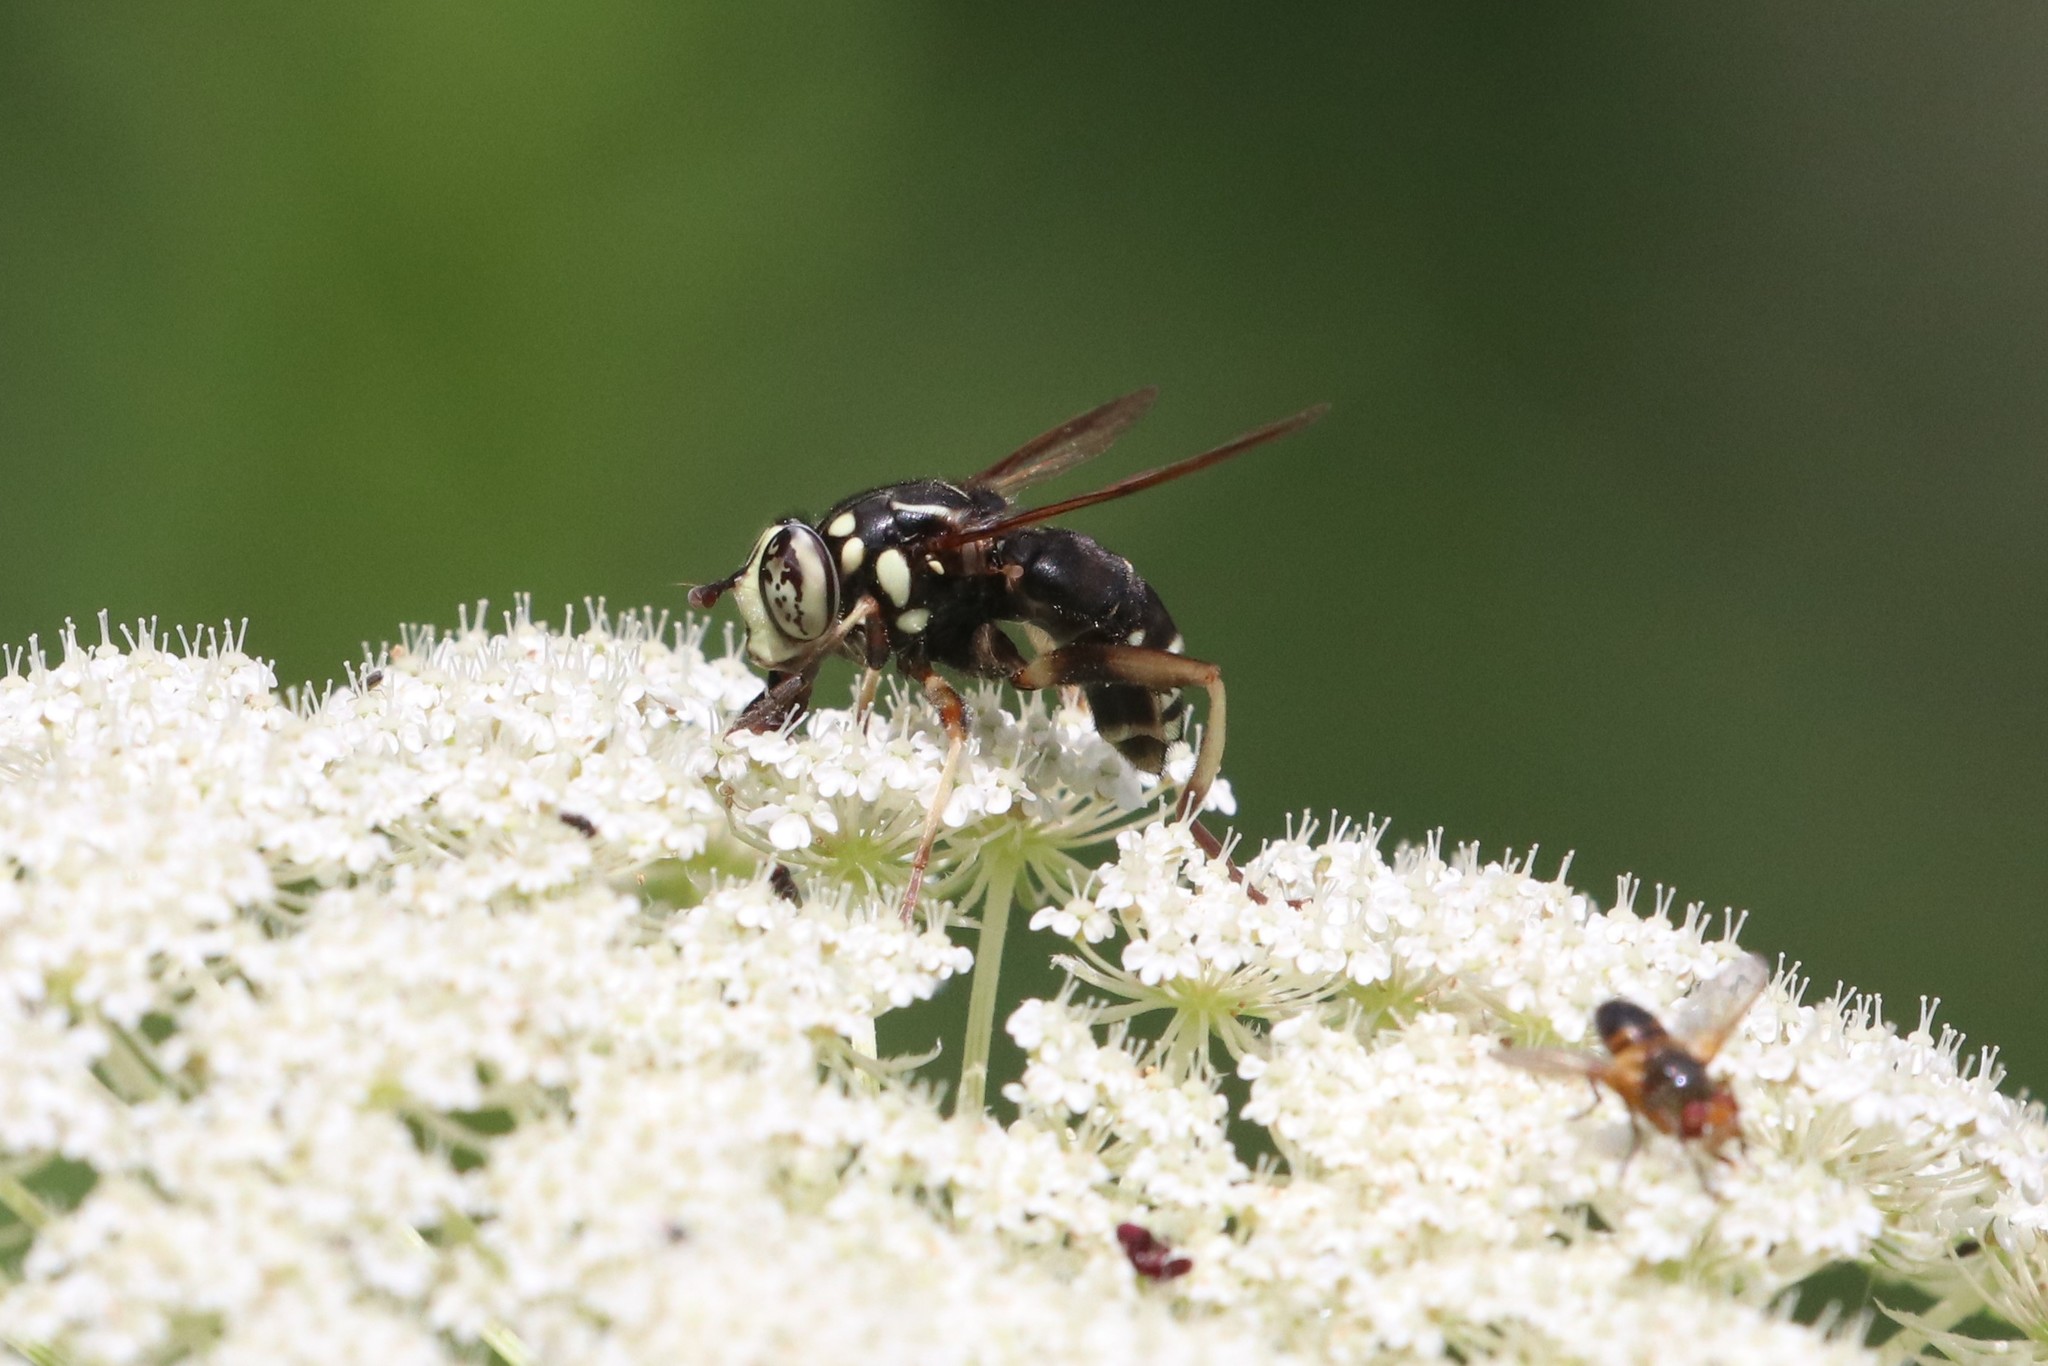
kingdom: Animalia
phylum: Arthropoda
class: Insecta
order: Diptera
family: Syrphidae
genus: Spilomyia
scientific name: Spilomyia fusca
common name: Bald-faced hornet fly
